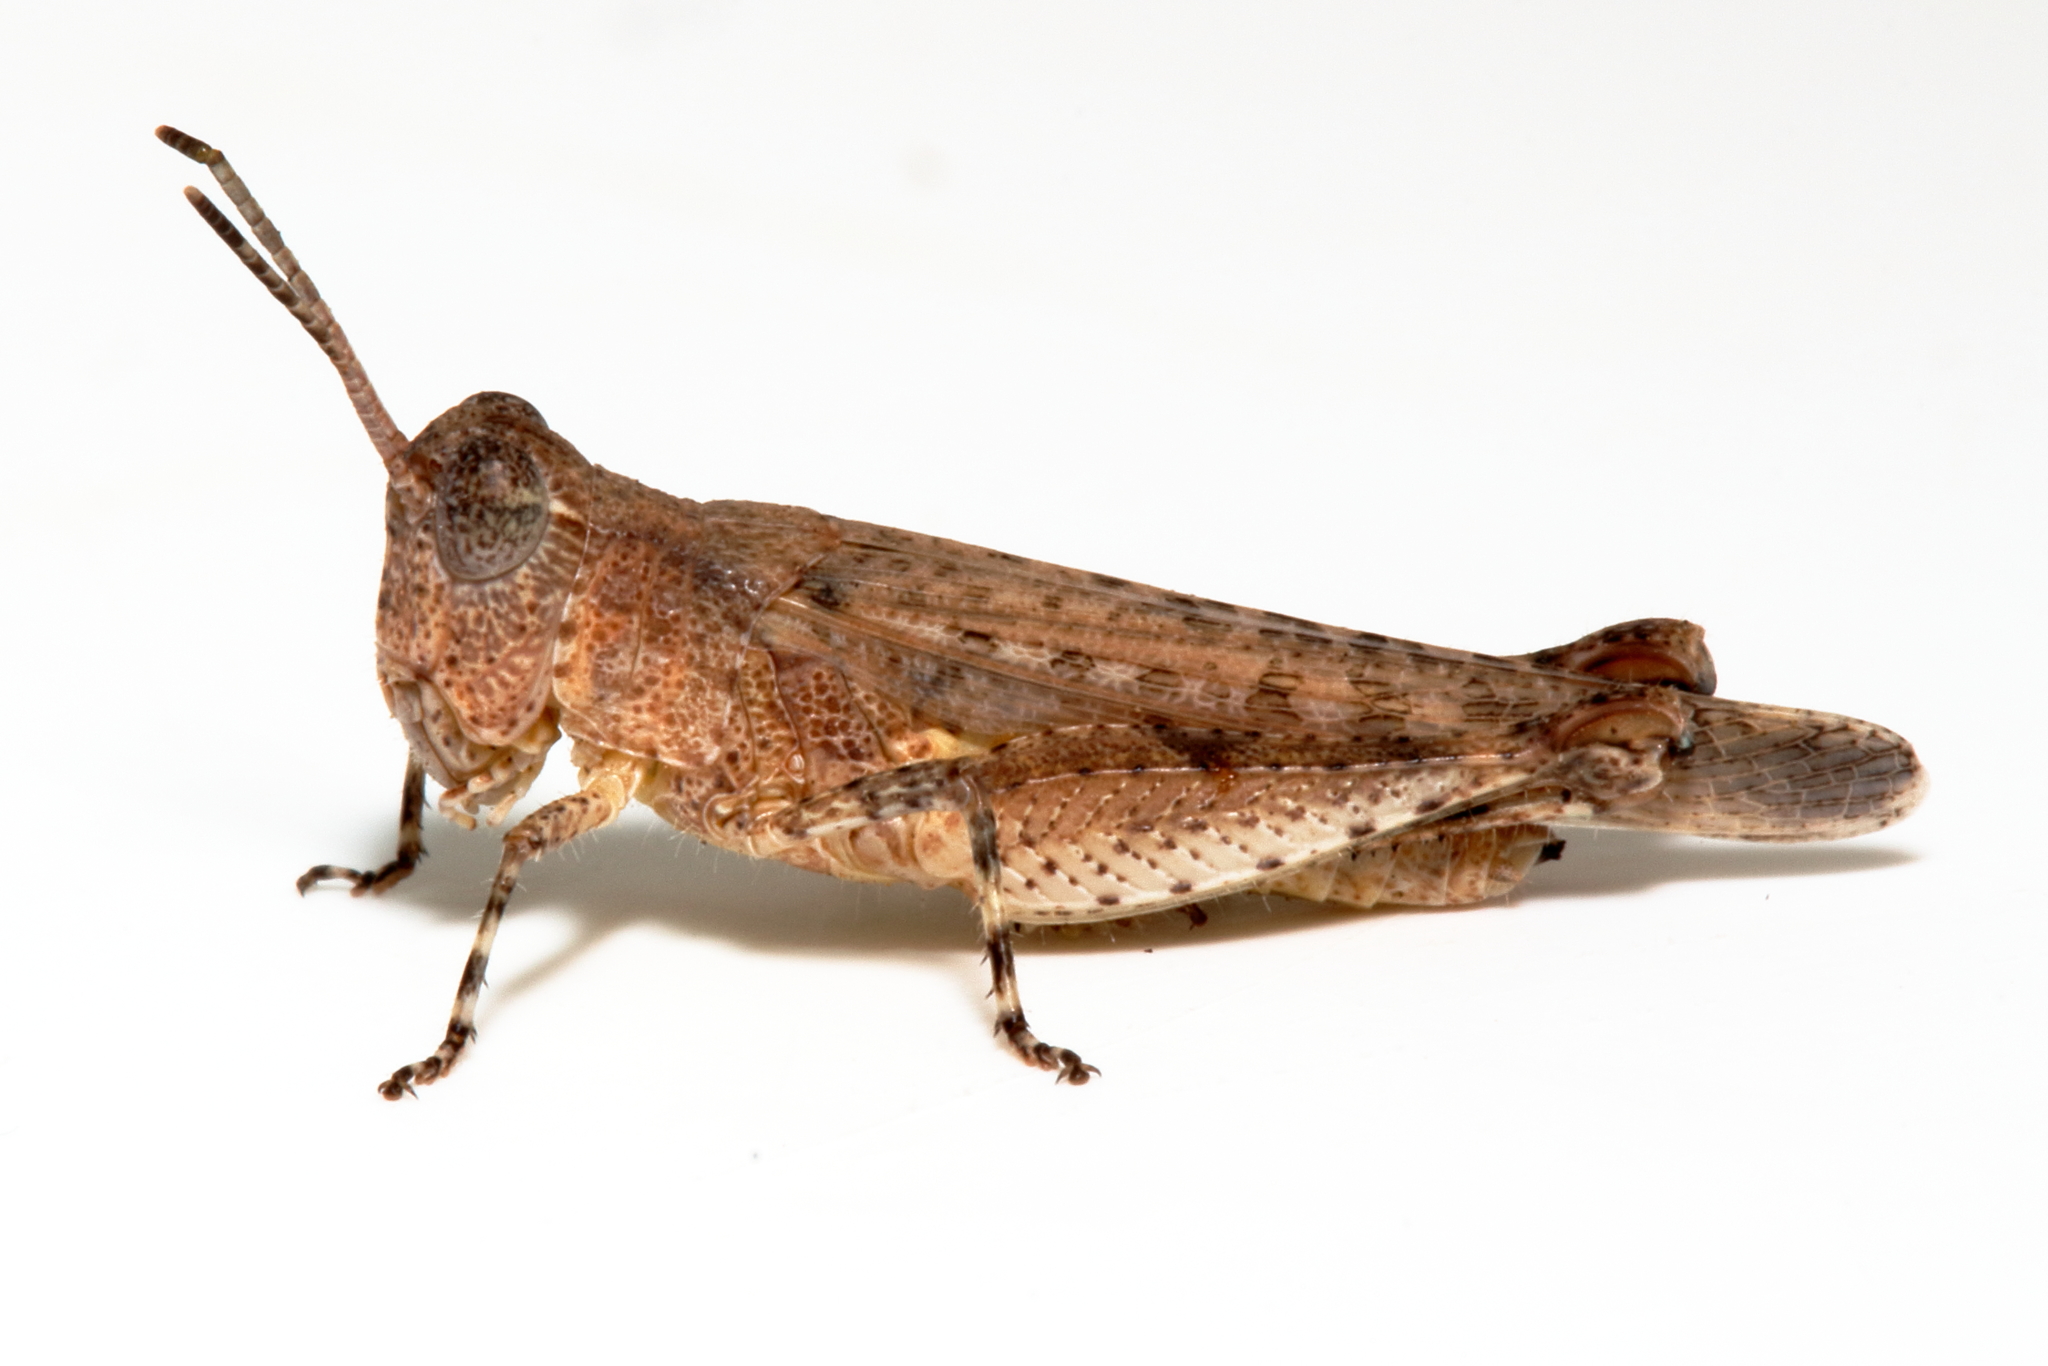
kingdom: Animalia
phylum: Arthropoda
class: Insecta
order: Orthoptera
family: Acrididae
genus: Minyacris
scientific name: Minyacris nana
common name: Tiny grasshopper
